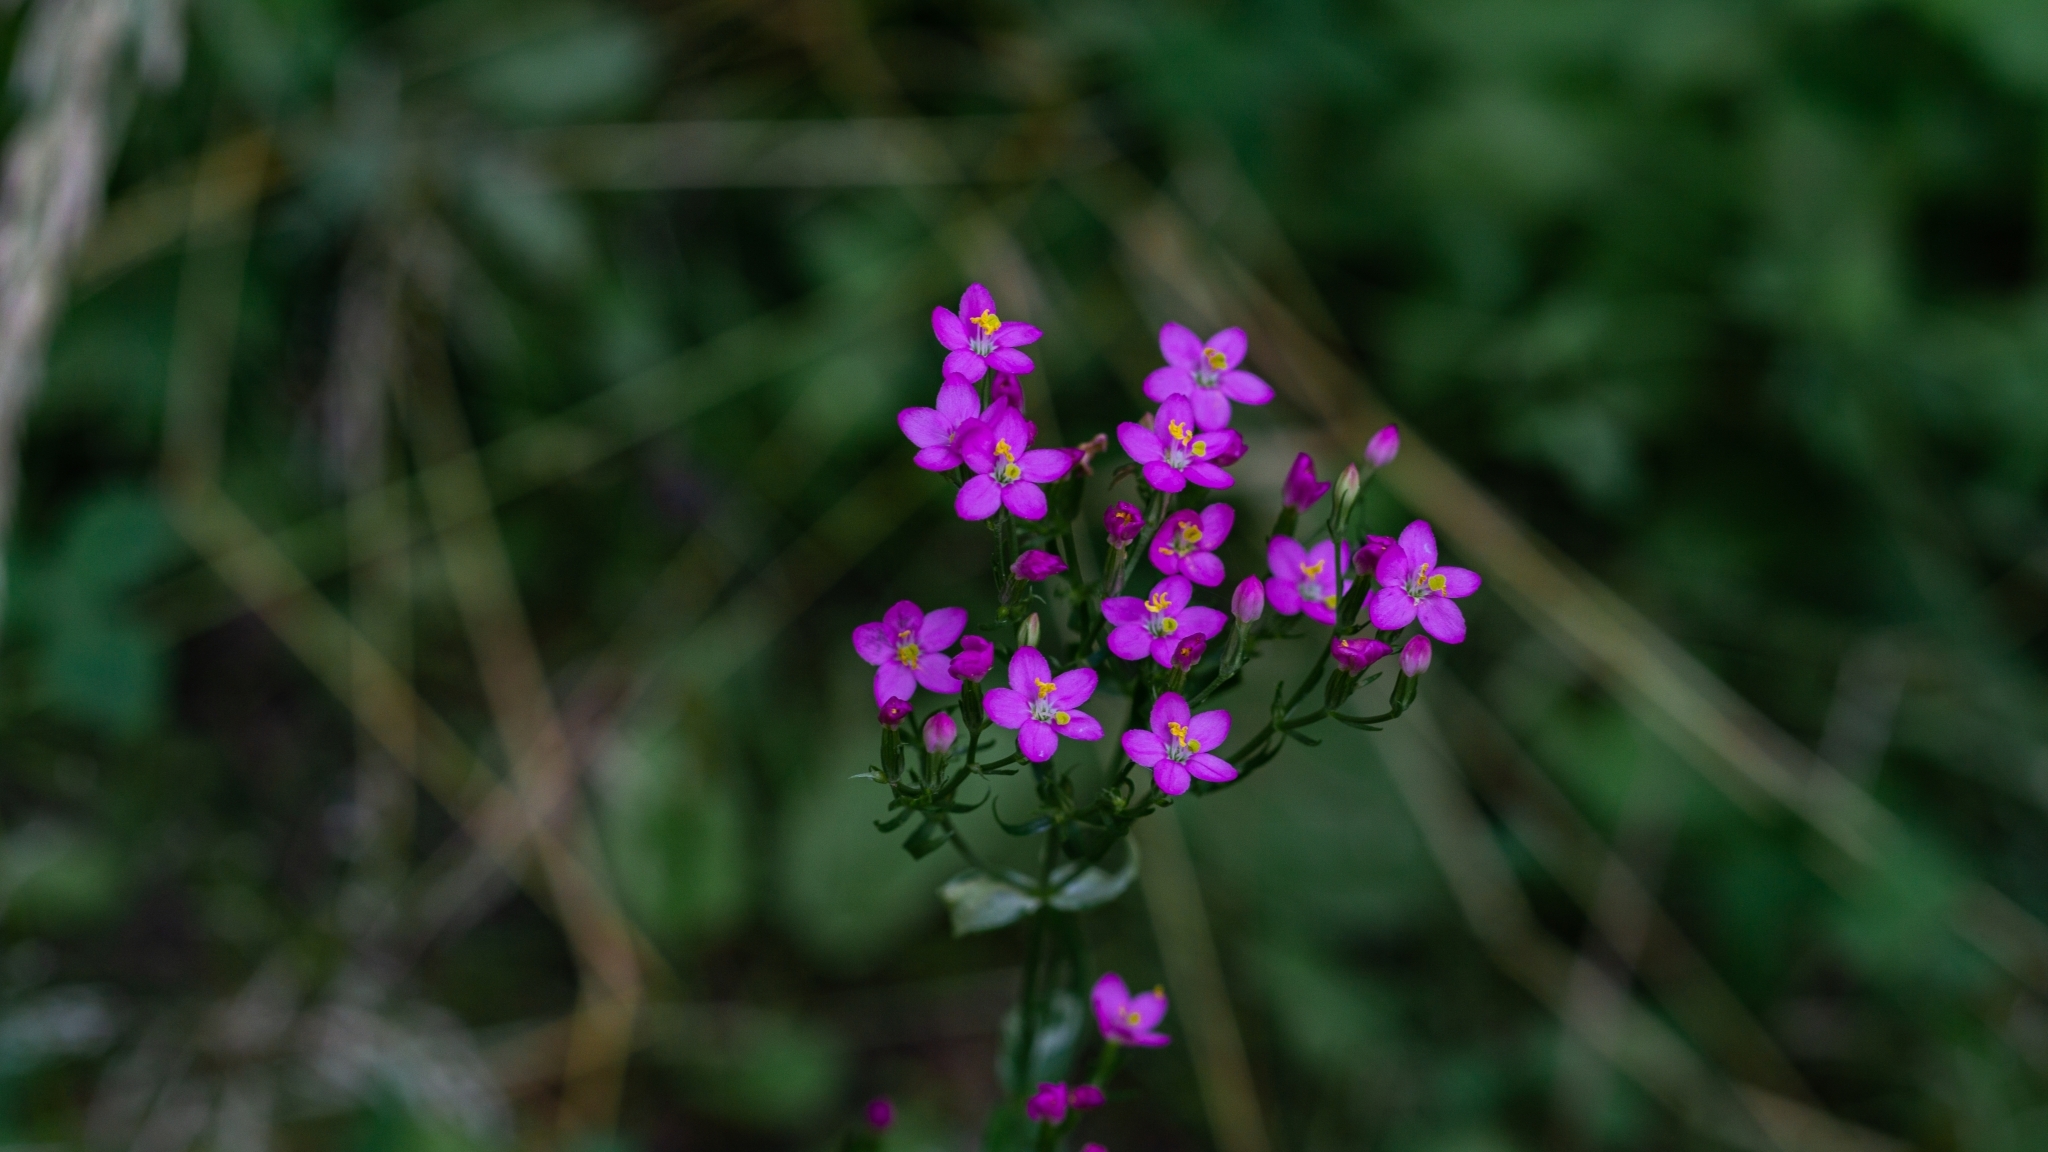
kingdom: Plantae
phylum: Tracheophyta
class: Magnoliopsida
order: Gentianales
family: Gentianaceae
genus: Centaurium
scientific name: Centaurium erythraea
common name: Common centaury
